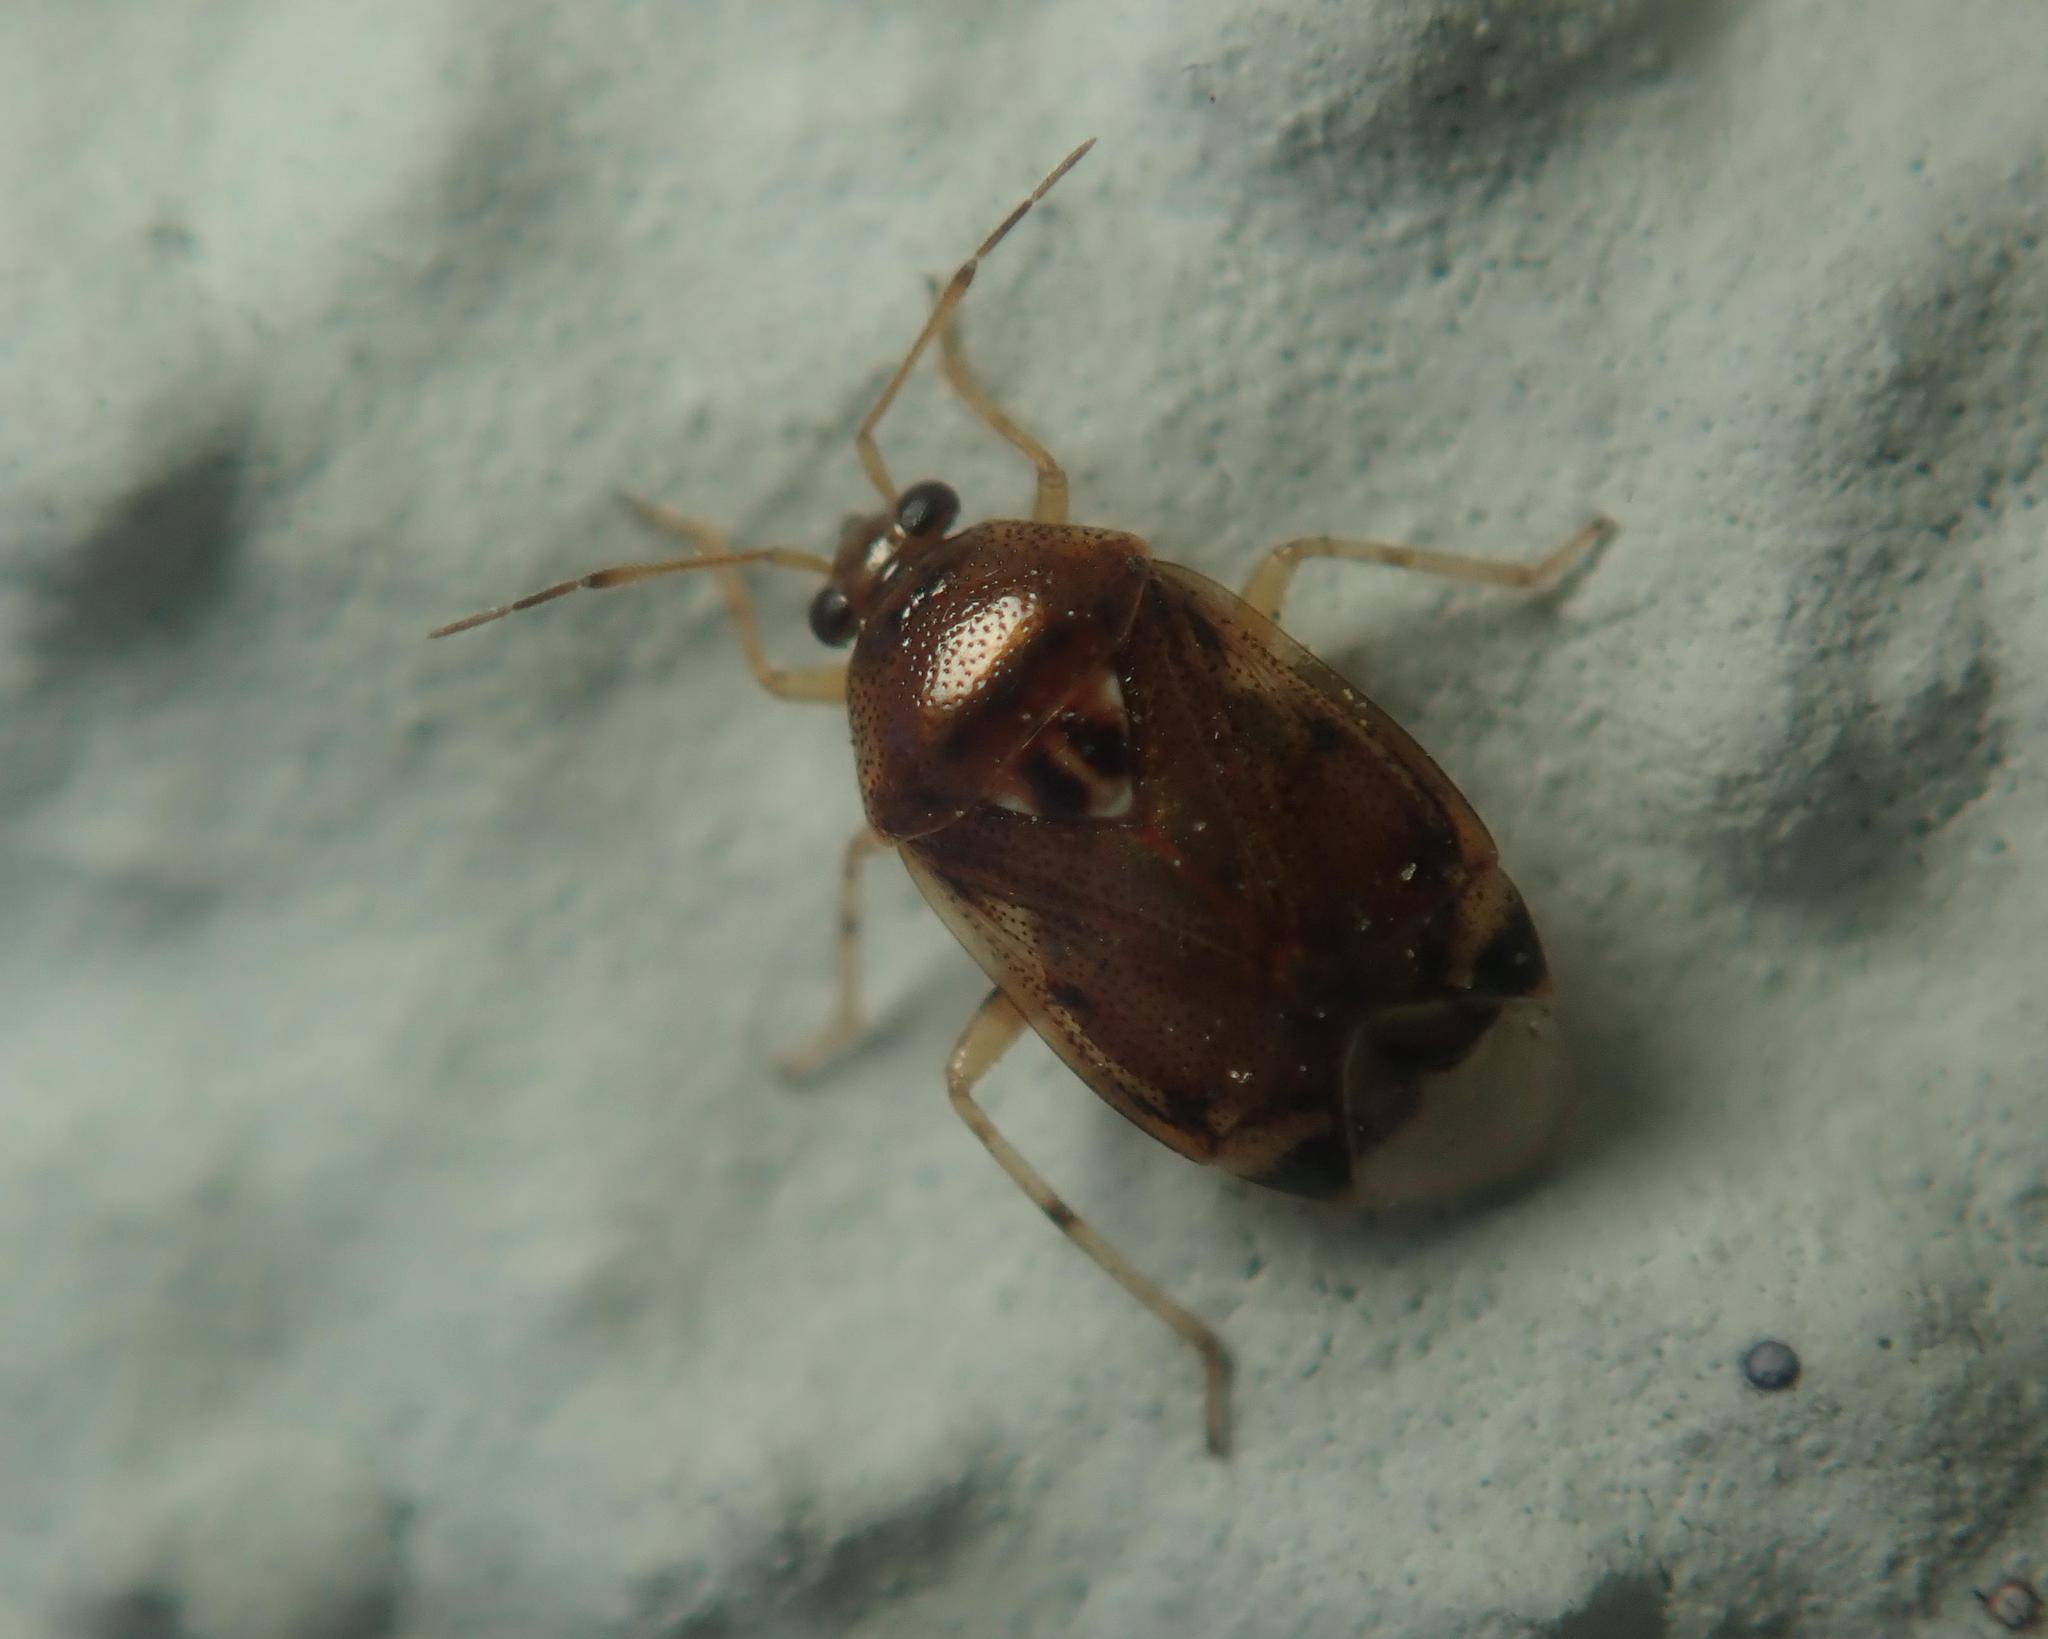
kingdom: Animalia
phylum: Arthropoda
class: Insecta
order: Hemiptera
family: Miridae
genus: Deraeocoris
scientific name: Deraeocoris lutescens
